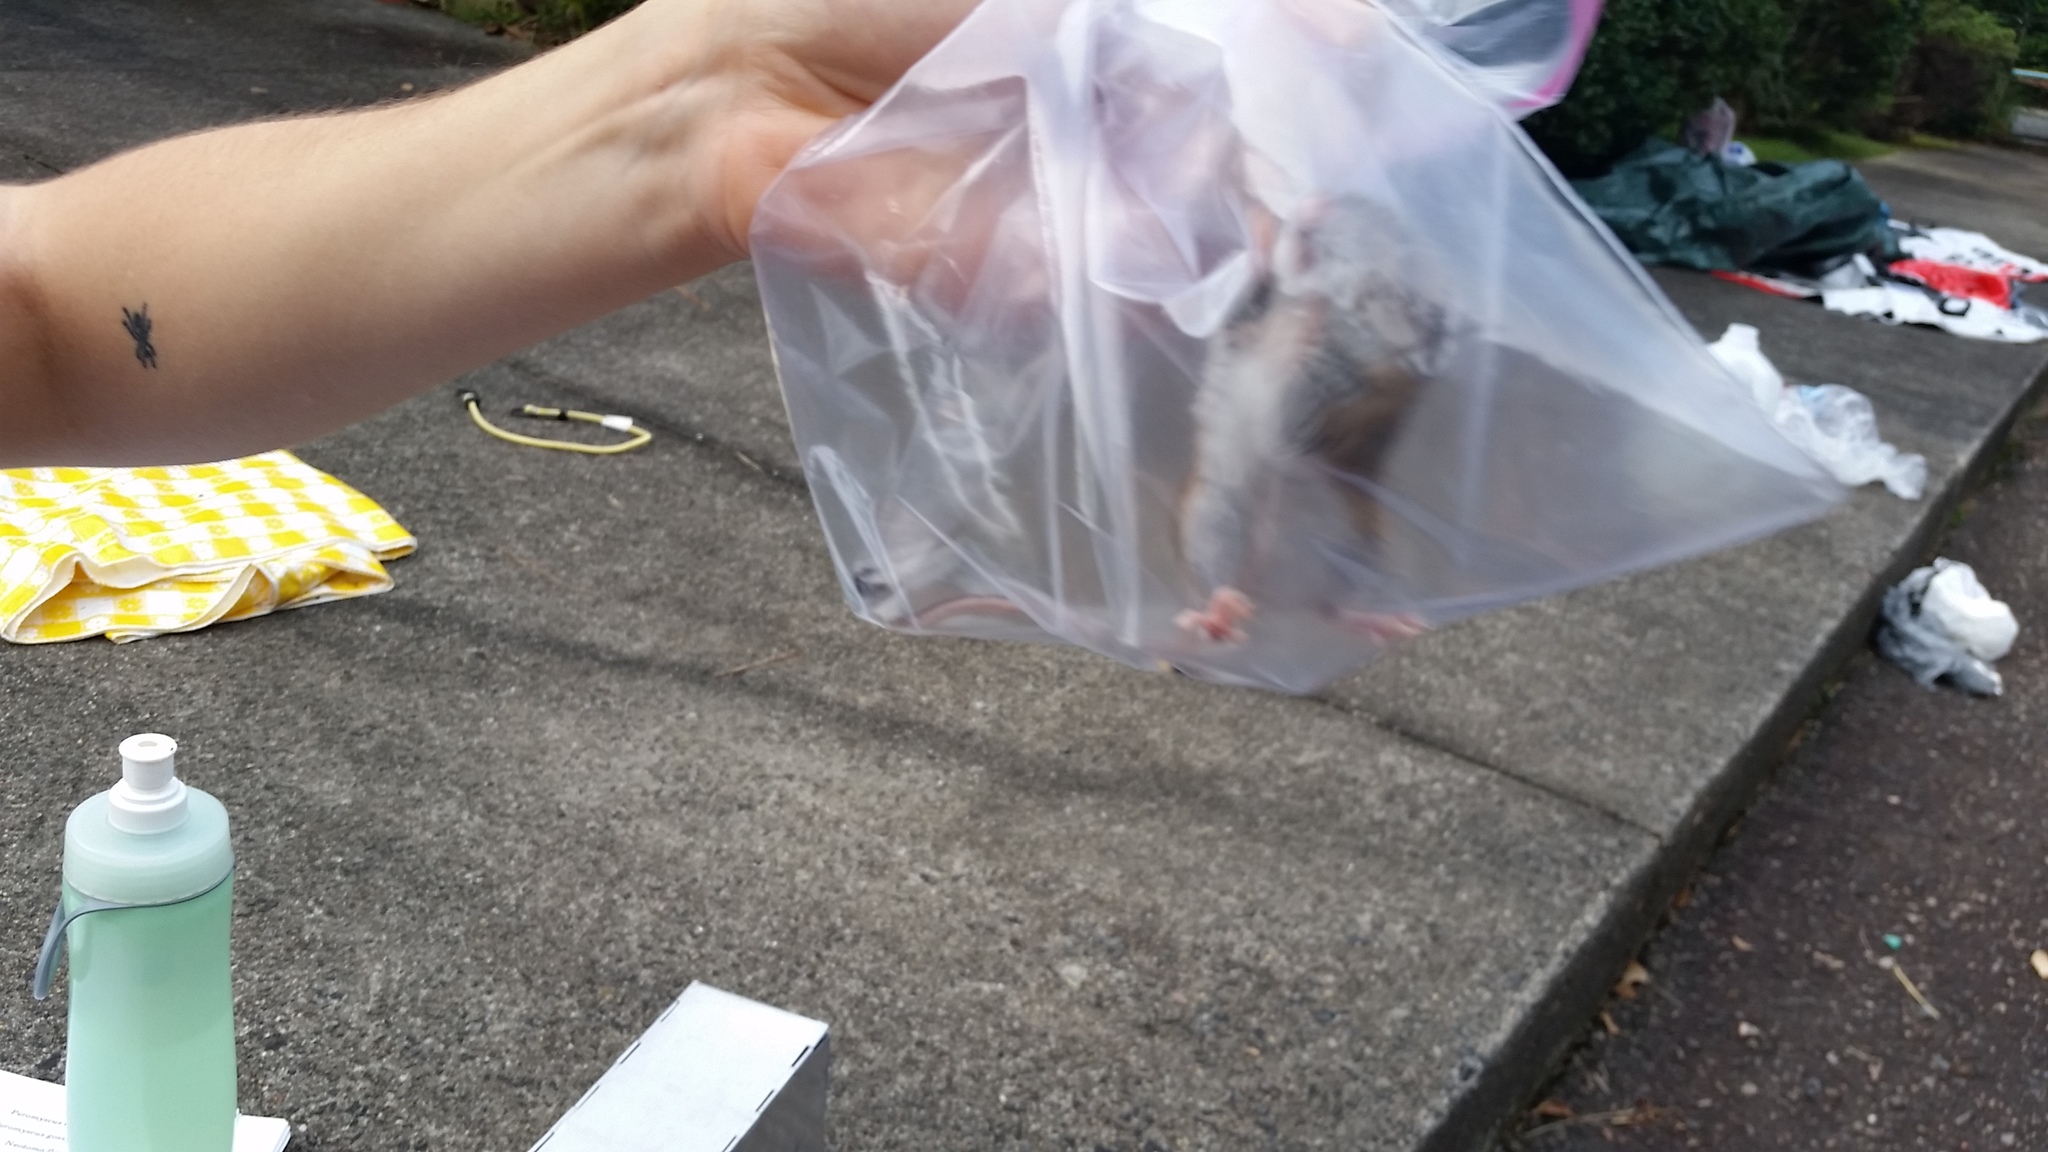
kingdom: Animalia
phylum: Chordata
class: Mammalia
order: Rodentia
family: Cricetidae
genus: Peromyscus
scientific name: Peromyscus polionotus
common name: Oldfield mouse
